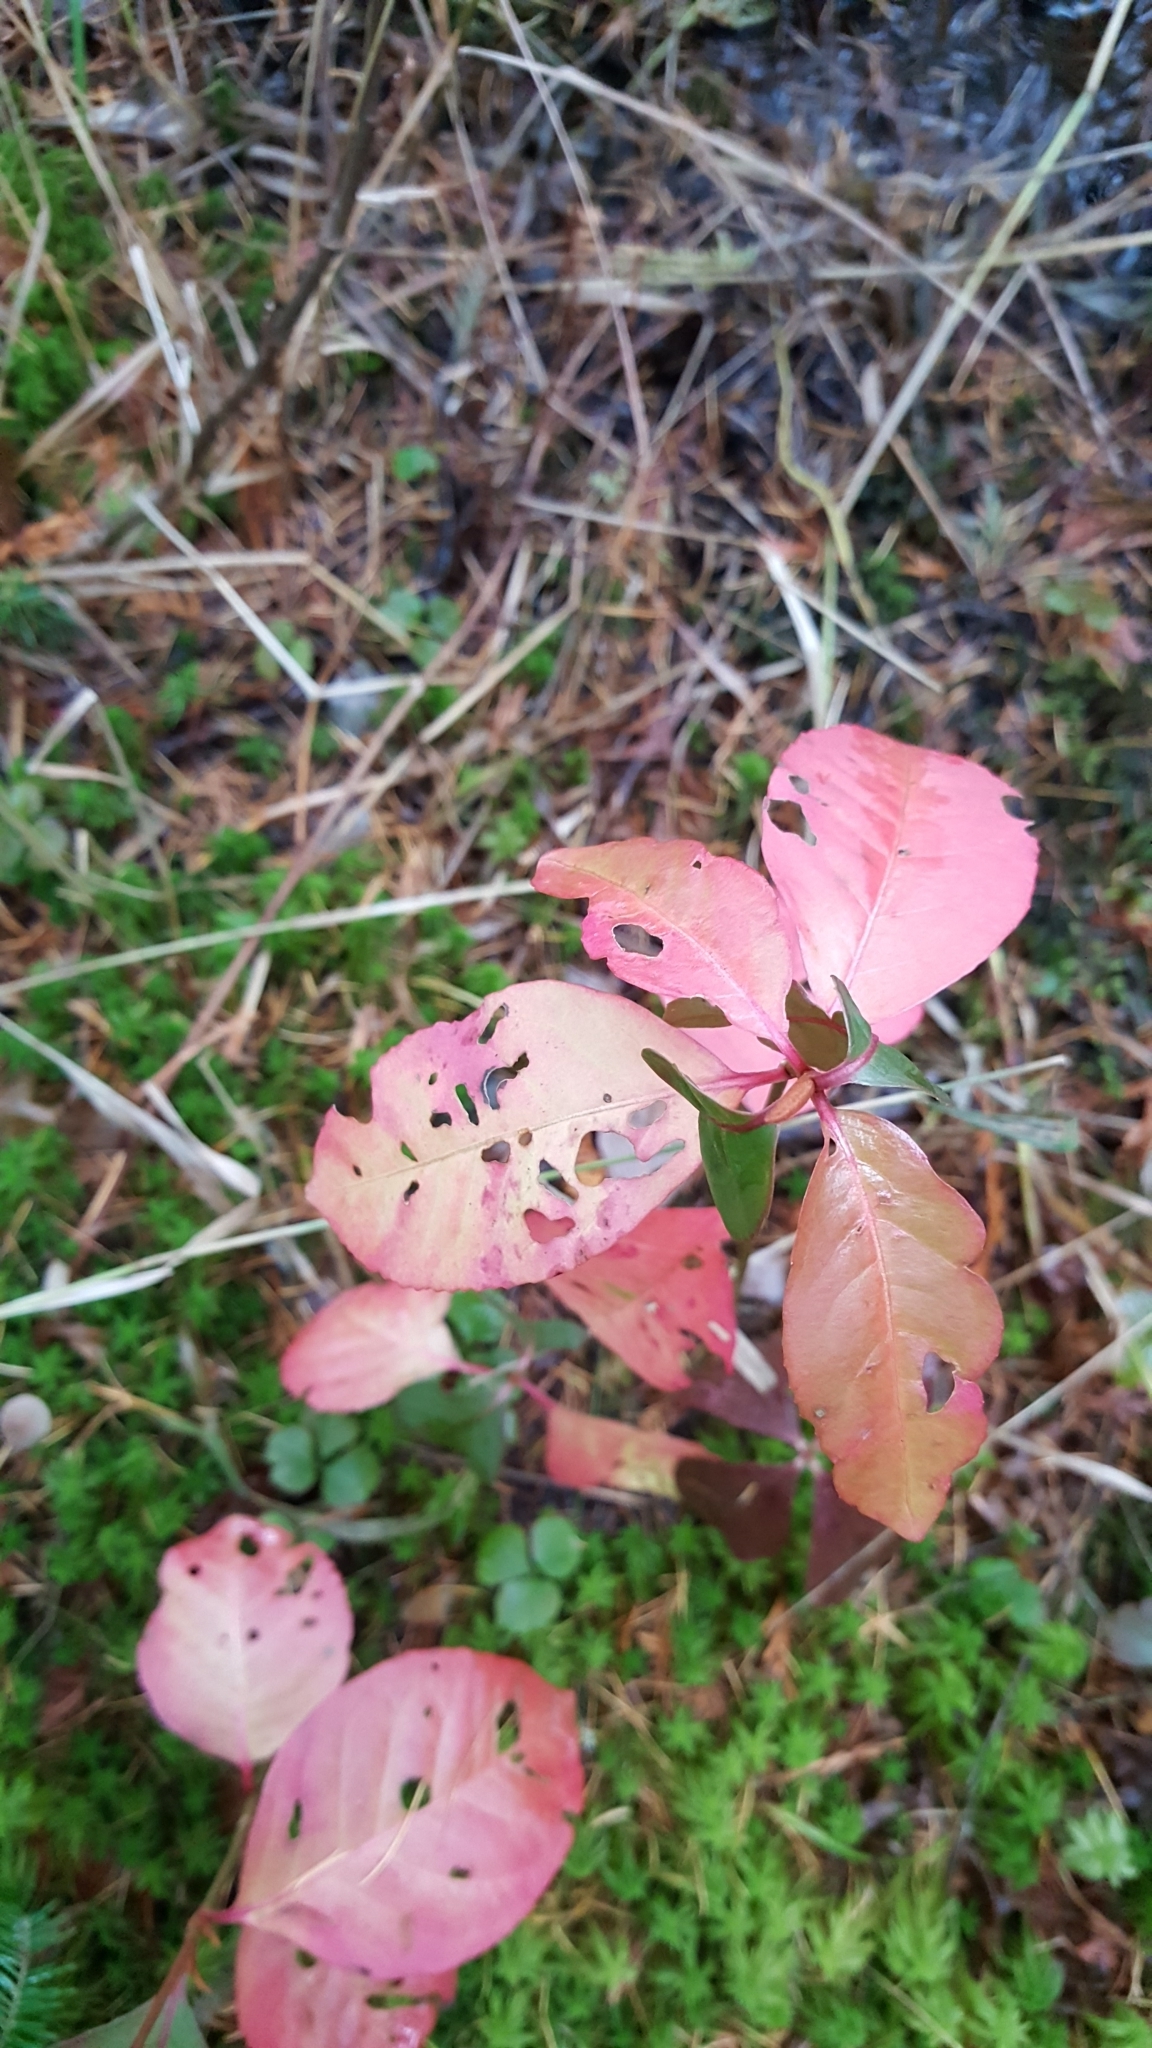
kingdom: Plantae
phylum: Tracheophyta
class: Magnoliopsida
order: Dipsacales
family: Viburnaceae
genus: Viburnum
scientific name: Viburnum cassinoides
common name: Swamp haw
